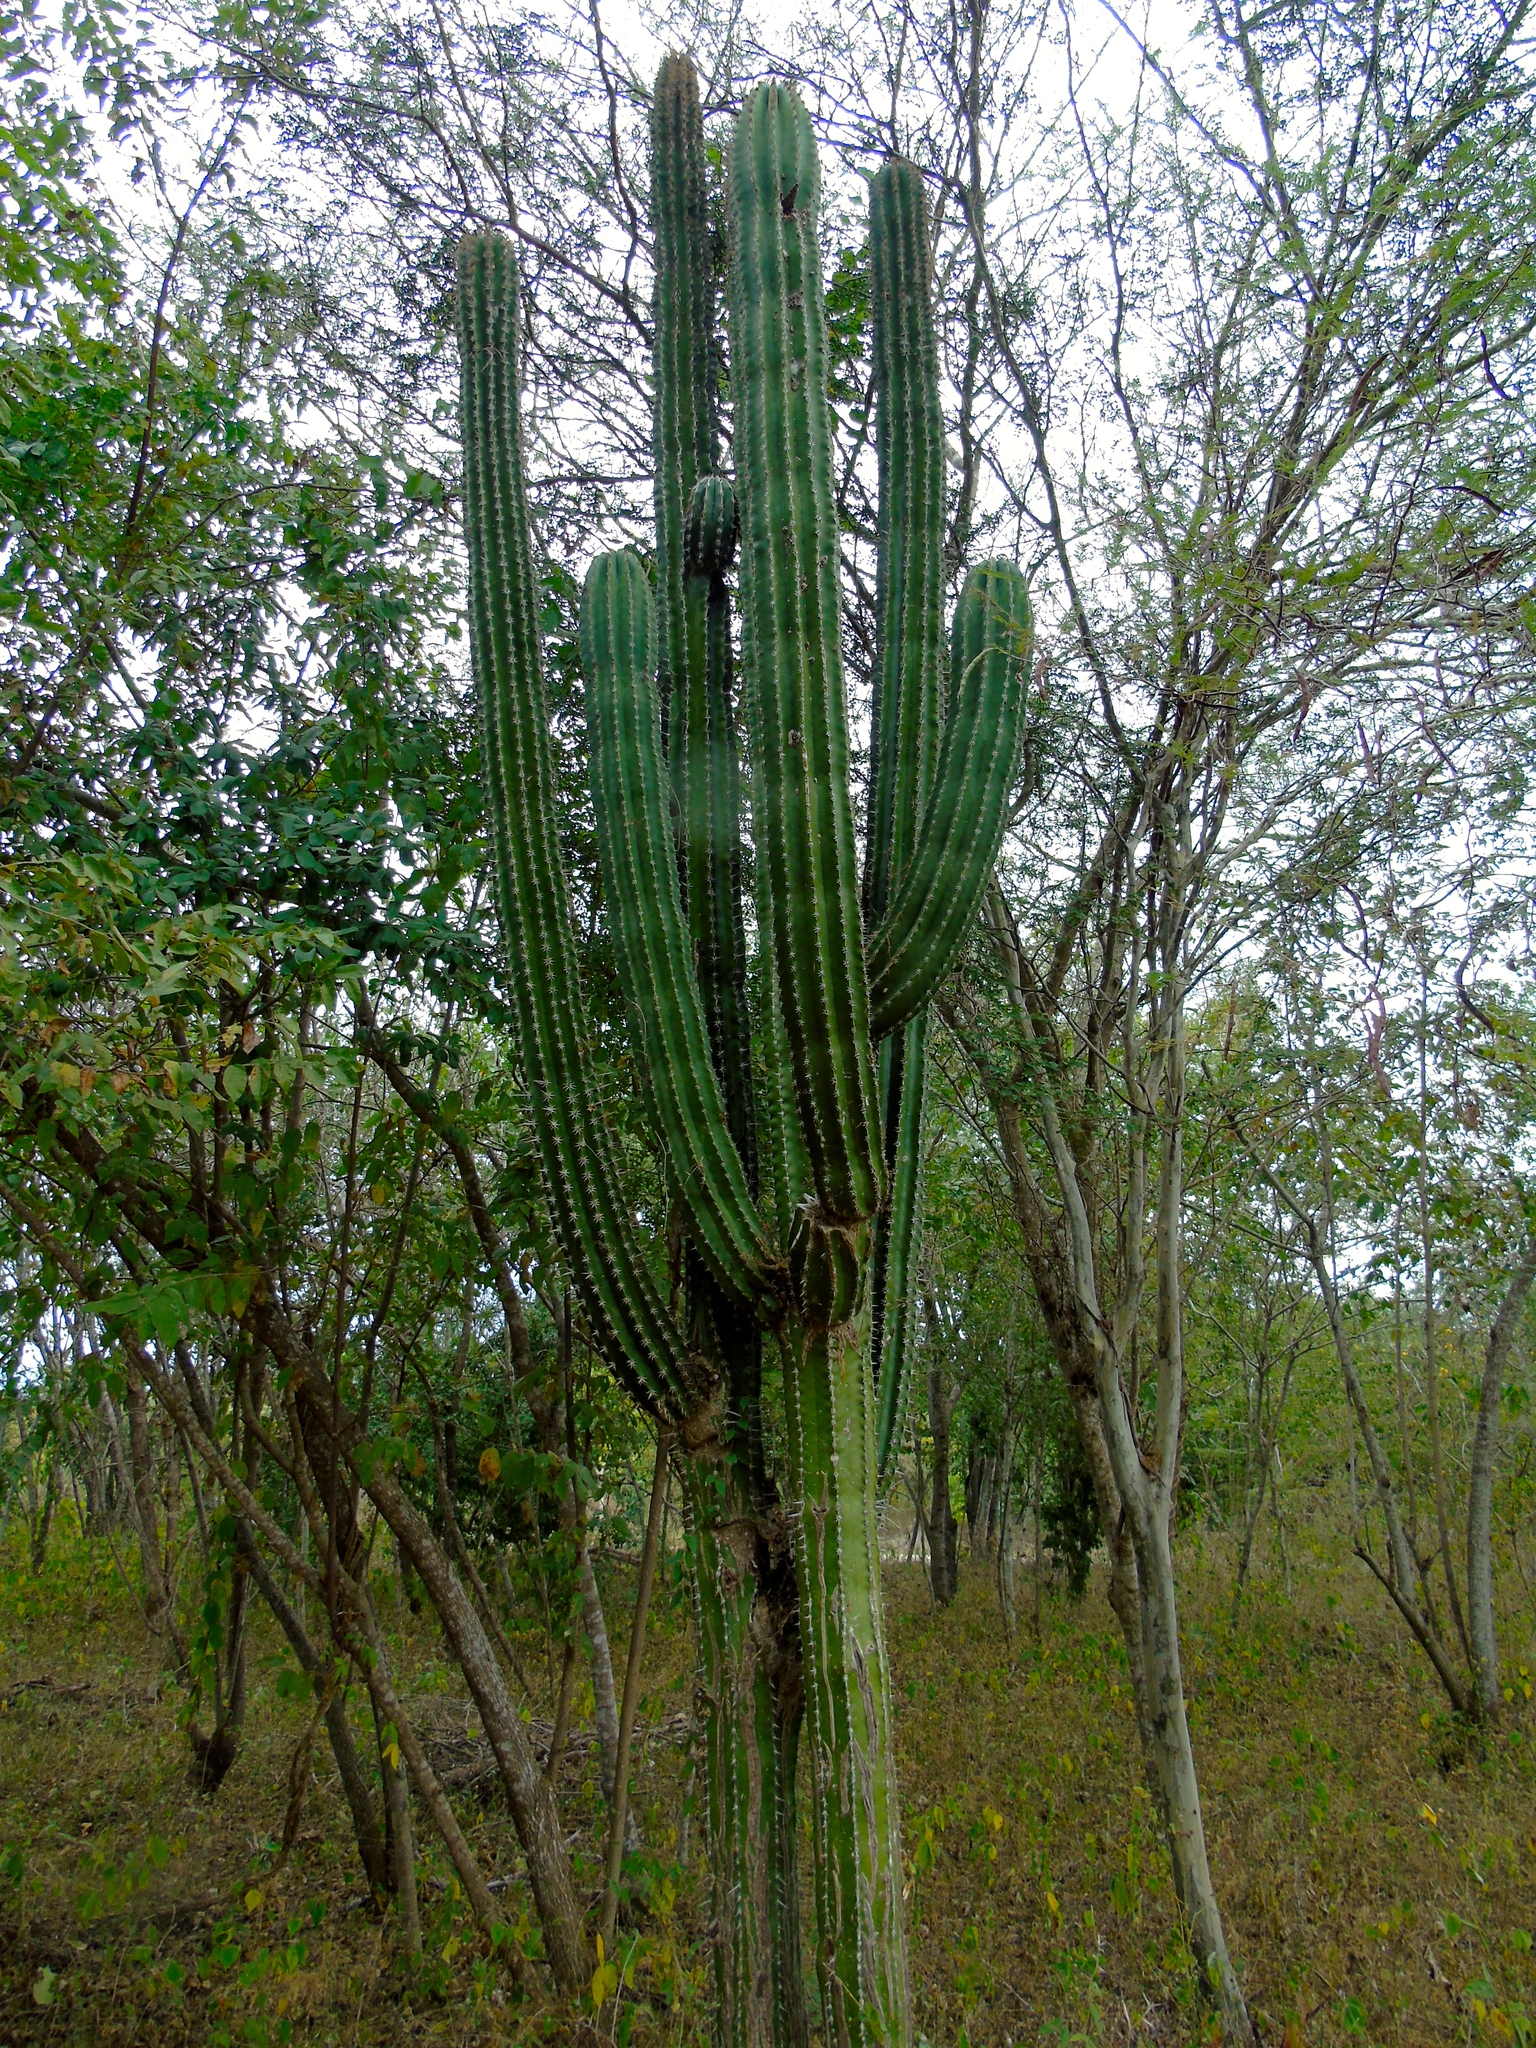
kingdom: Plantae
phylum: Tracheophyta
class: Magnoliopsida
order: Caryophyllales
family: Cactaceae
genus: Pachycereus
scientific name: Pachycereus pecten-aboriginum
